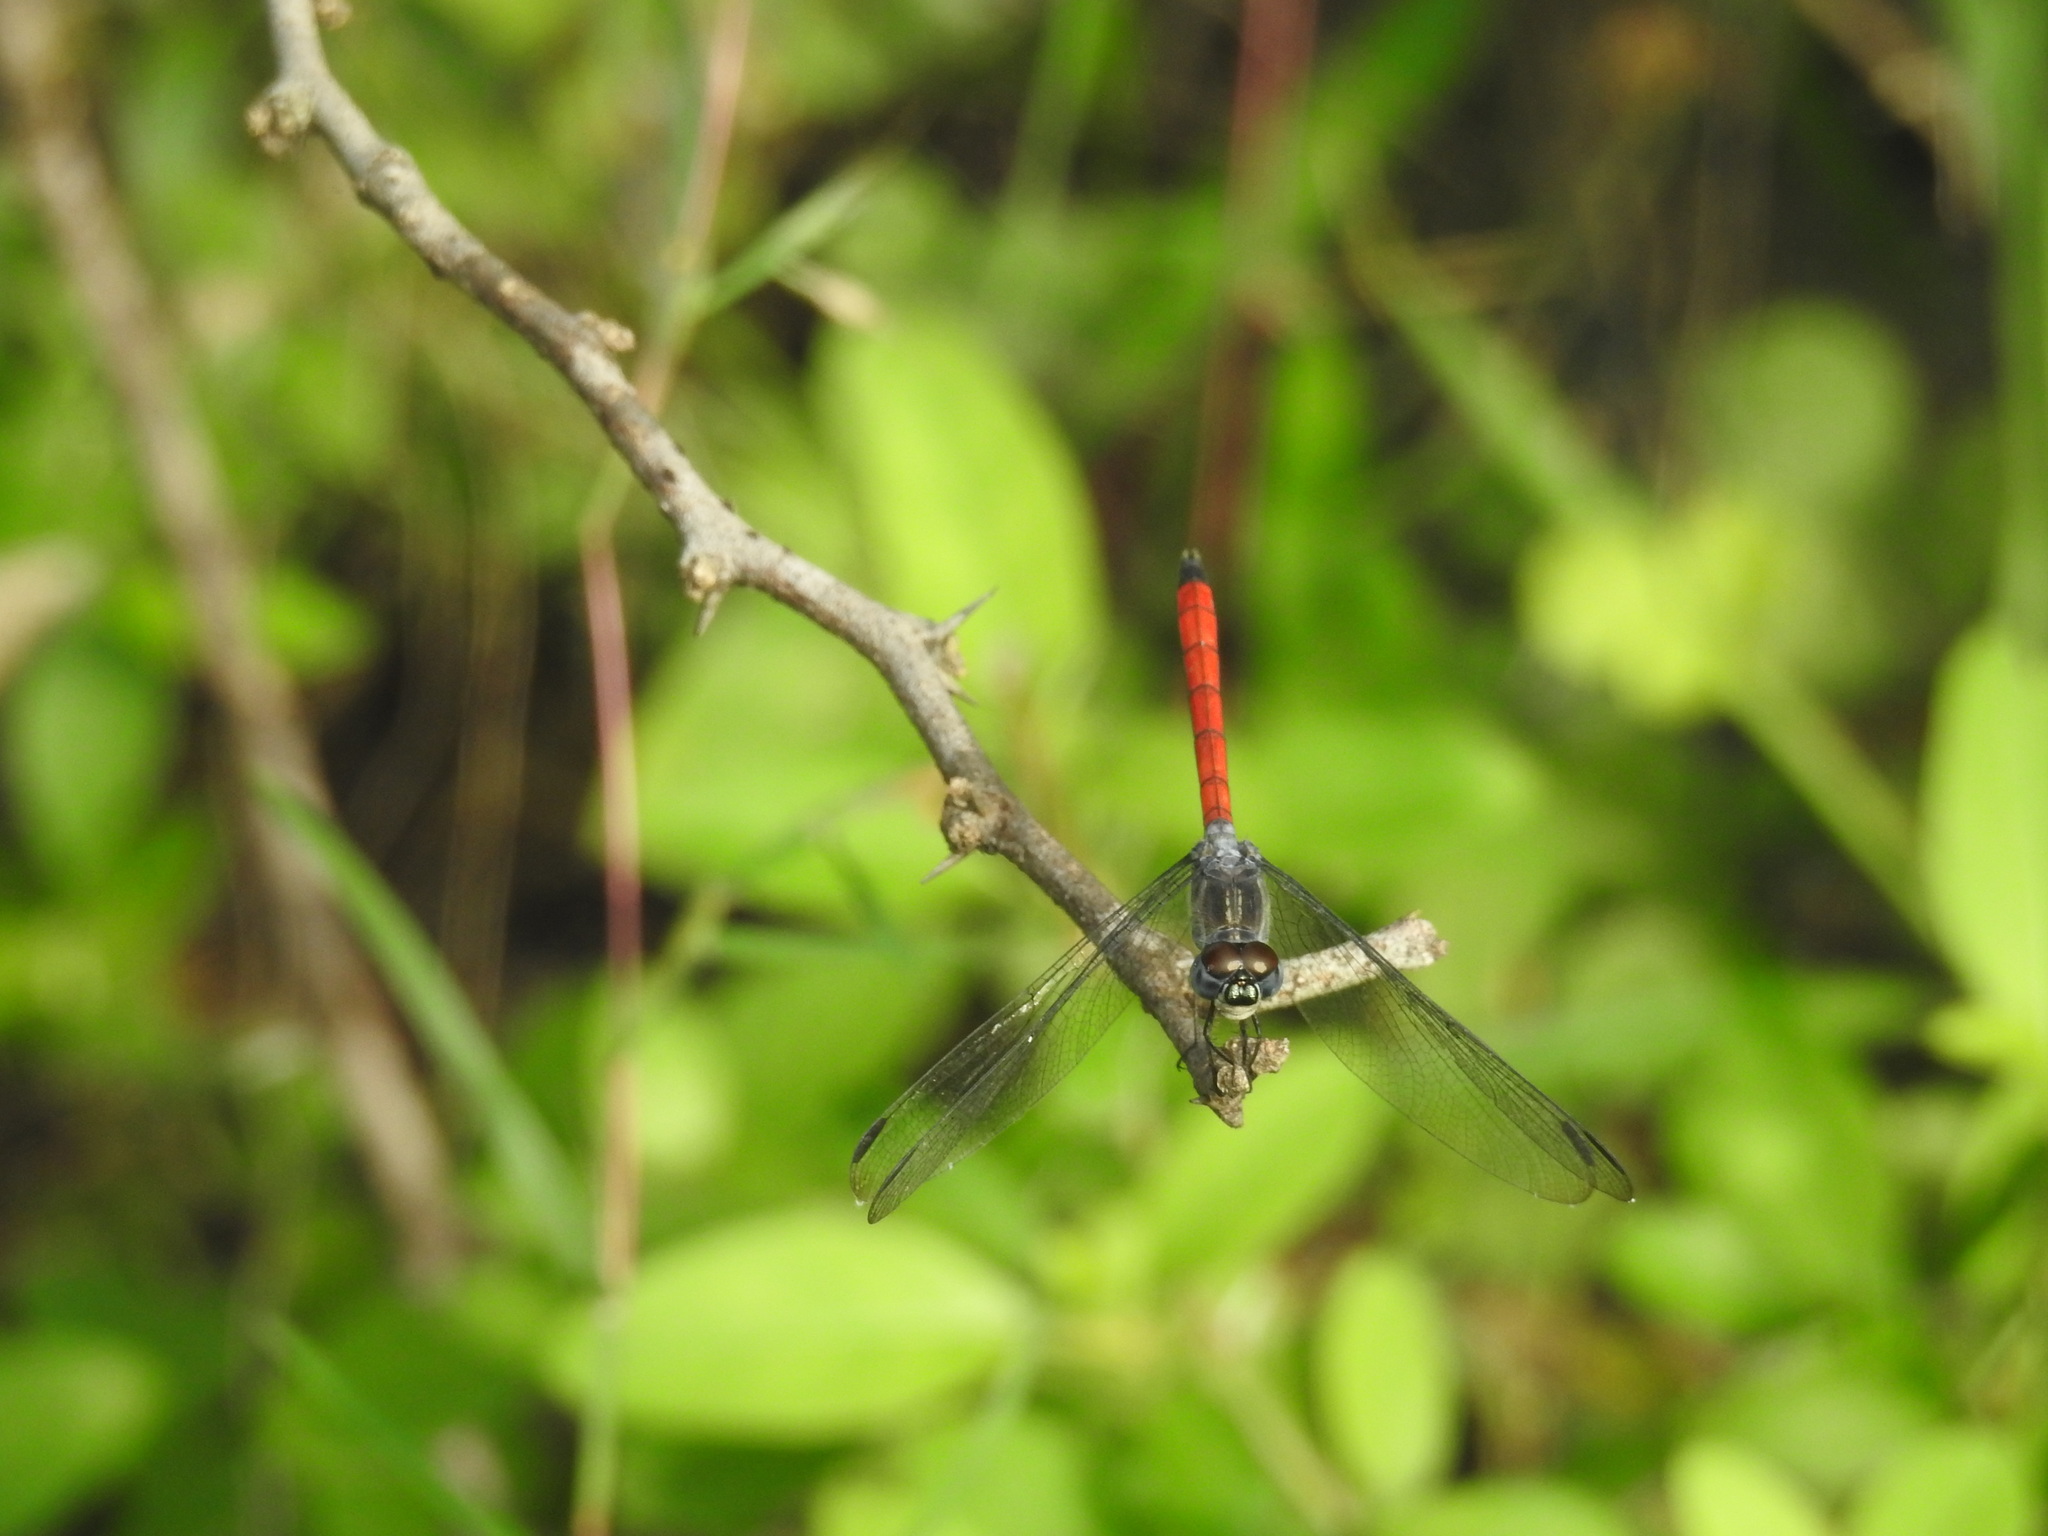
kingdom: Animalia
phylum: Arthropoda
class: Insecta
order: Odonata
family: Libellulidae
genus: Lathrecista
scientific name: Lathrecista asiatica
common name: Scarlet grenadier
